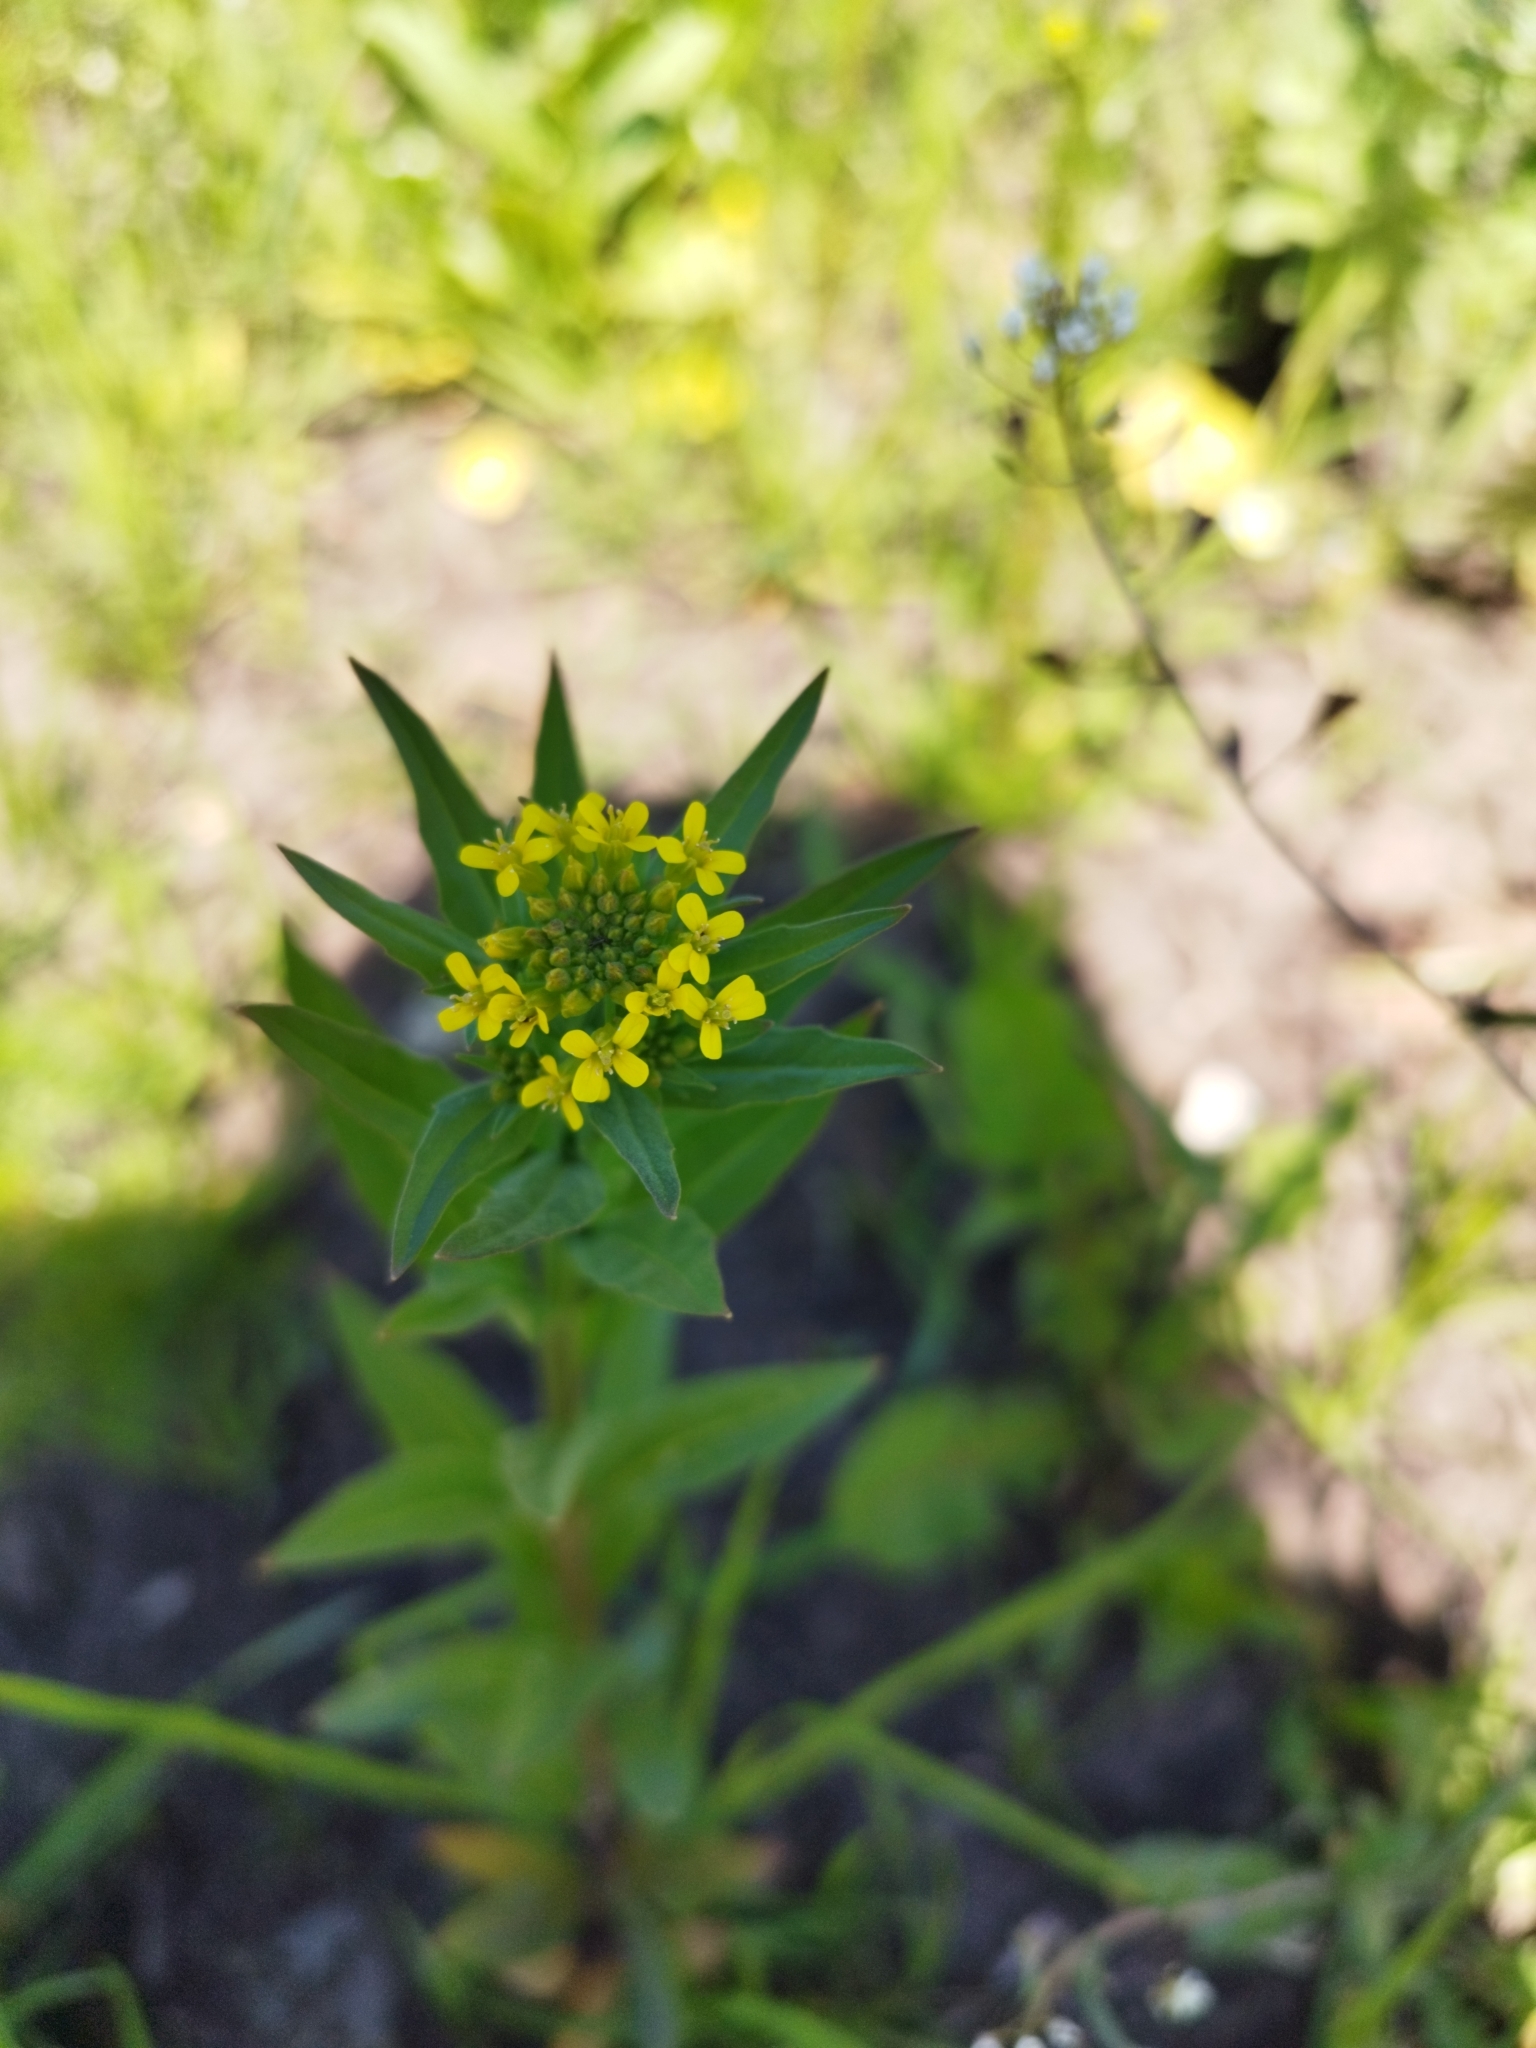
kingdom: Plantae
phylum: Tracheophyta
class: Magnoliopsida
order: Brassicales
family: Brassicaceae
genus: Erysimum
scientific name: Erysimum cheiranthoides
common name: Treacle mustard
